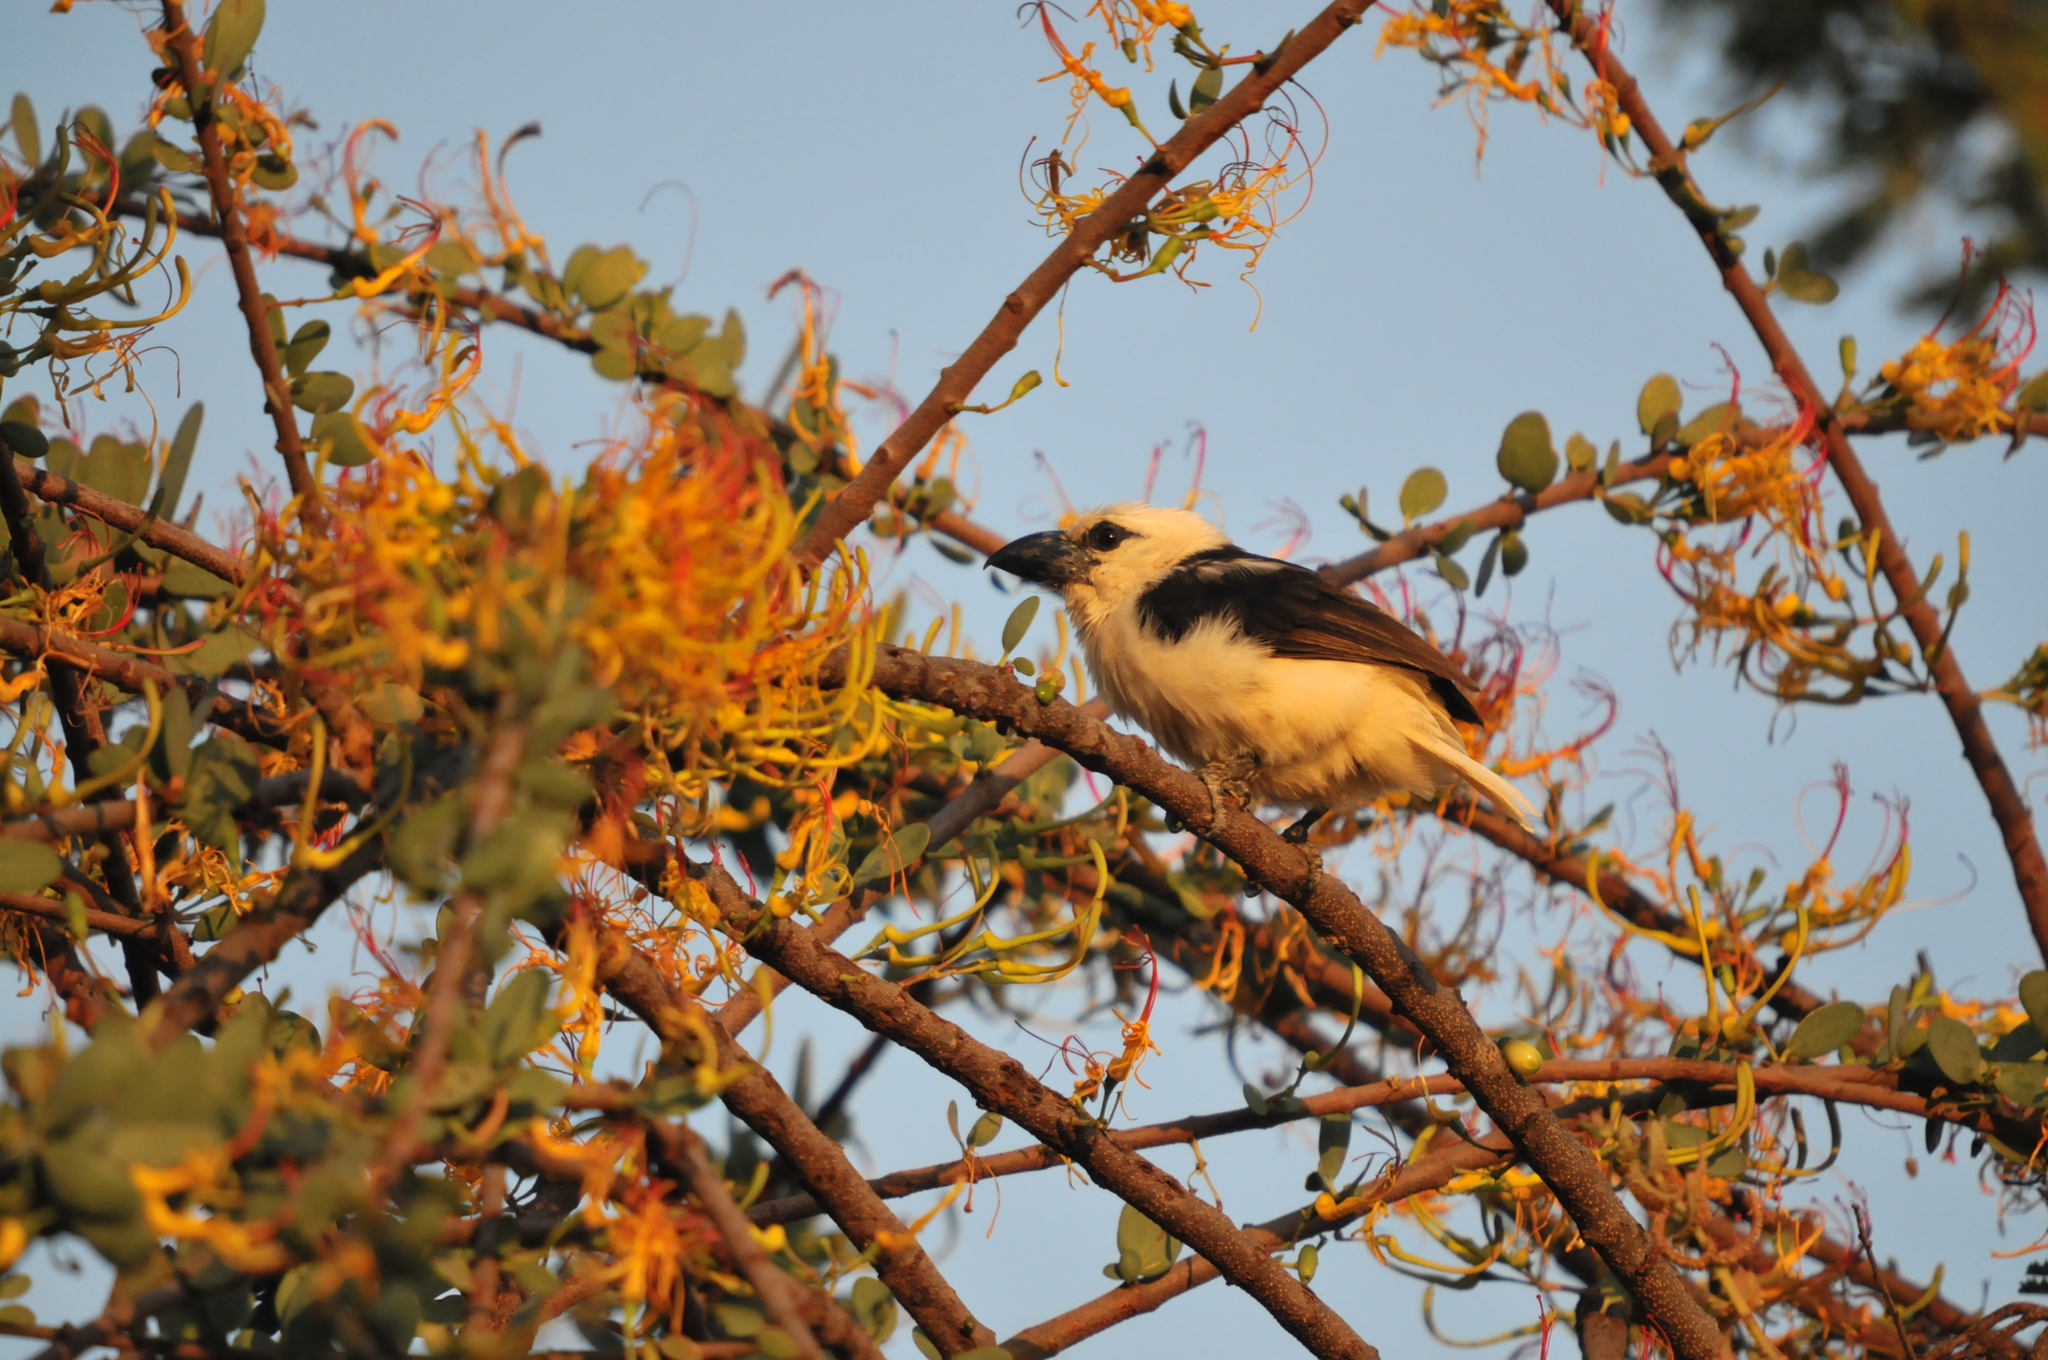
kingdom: Animalia
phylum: Chordata
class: Aves
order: Piciformes
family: Lybiidae
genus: Lybius
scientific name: Lybius leucocephalus
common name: White-headed barbet
